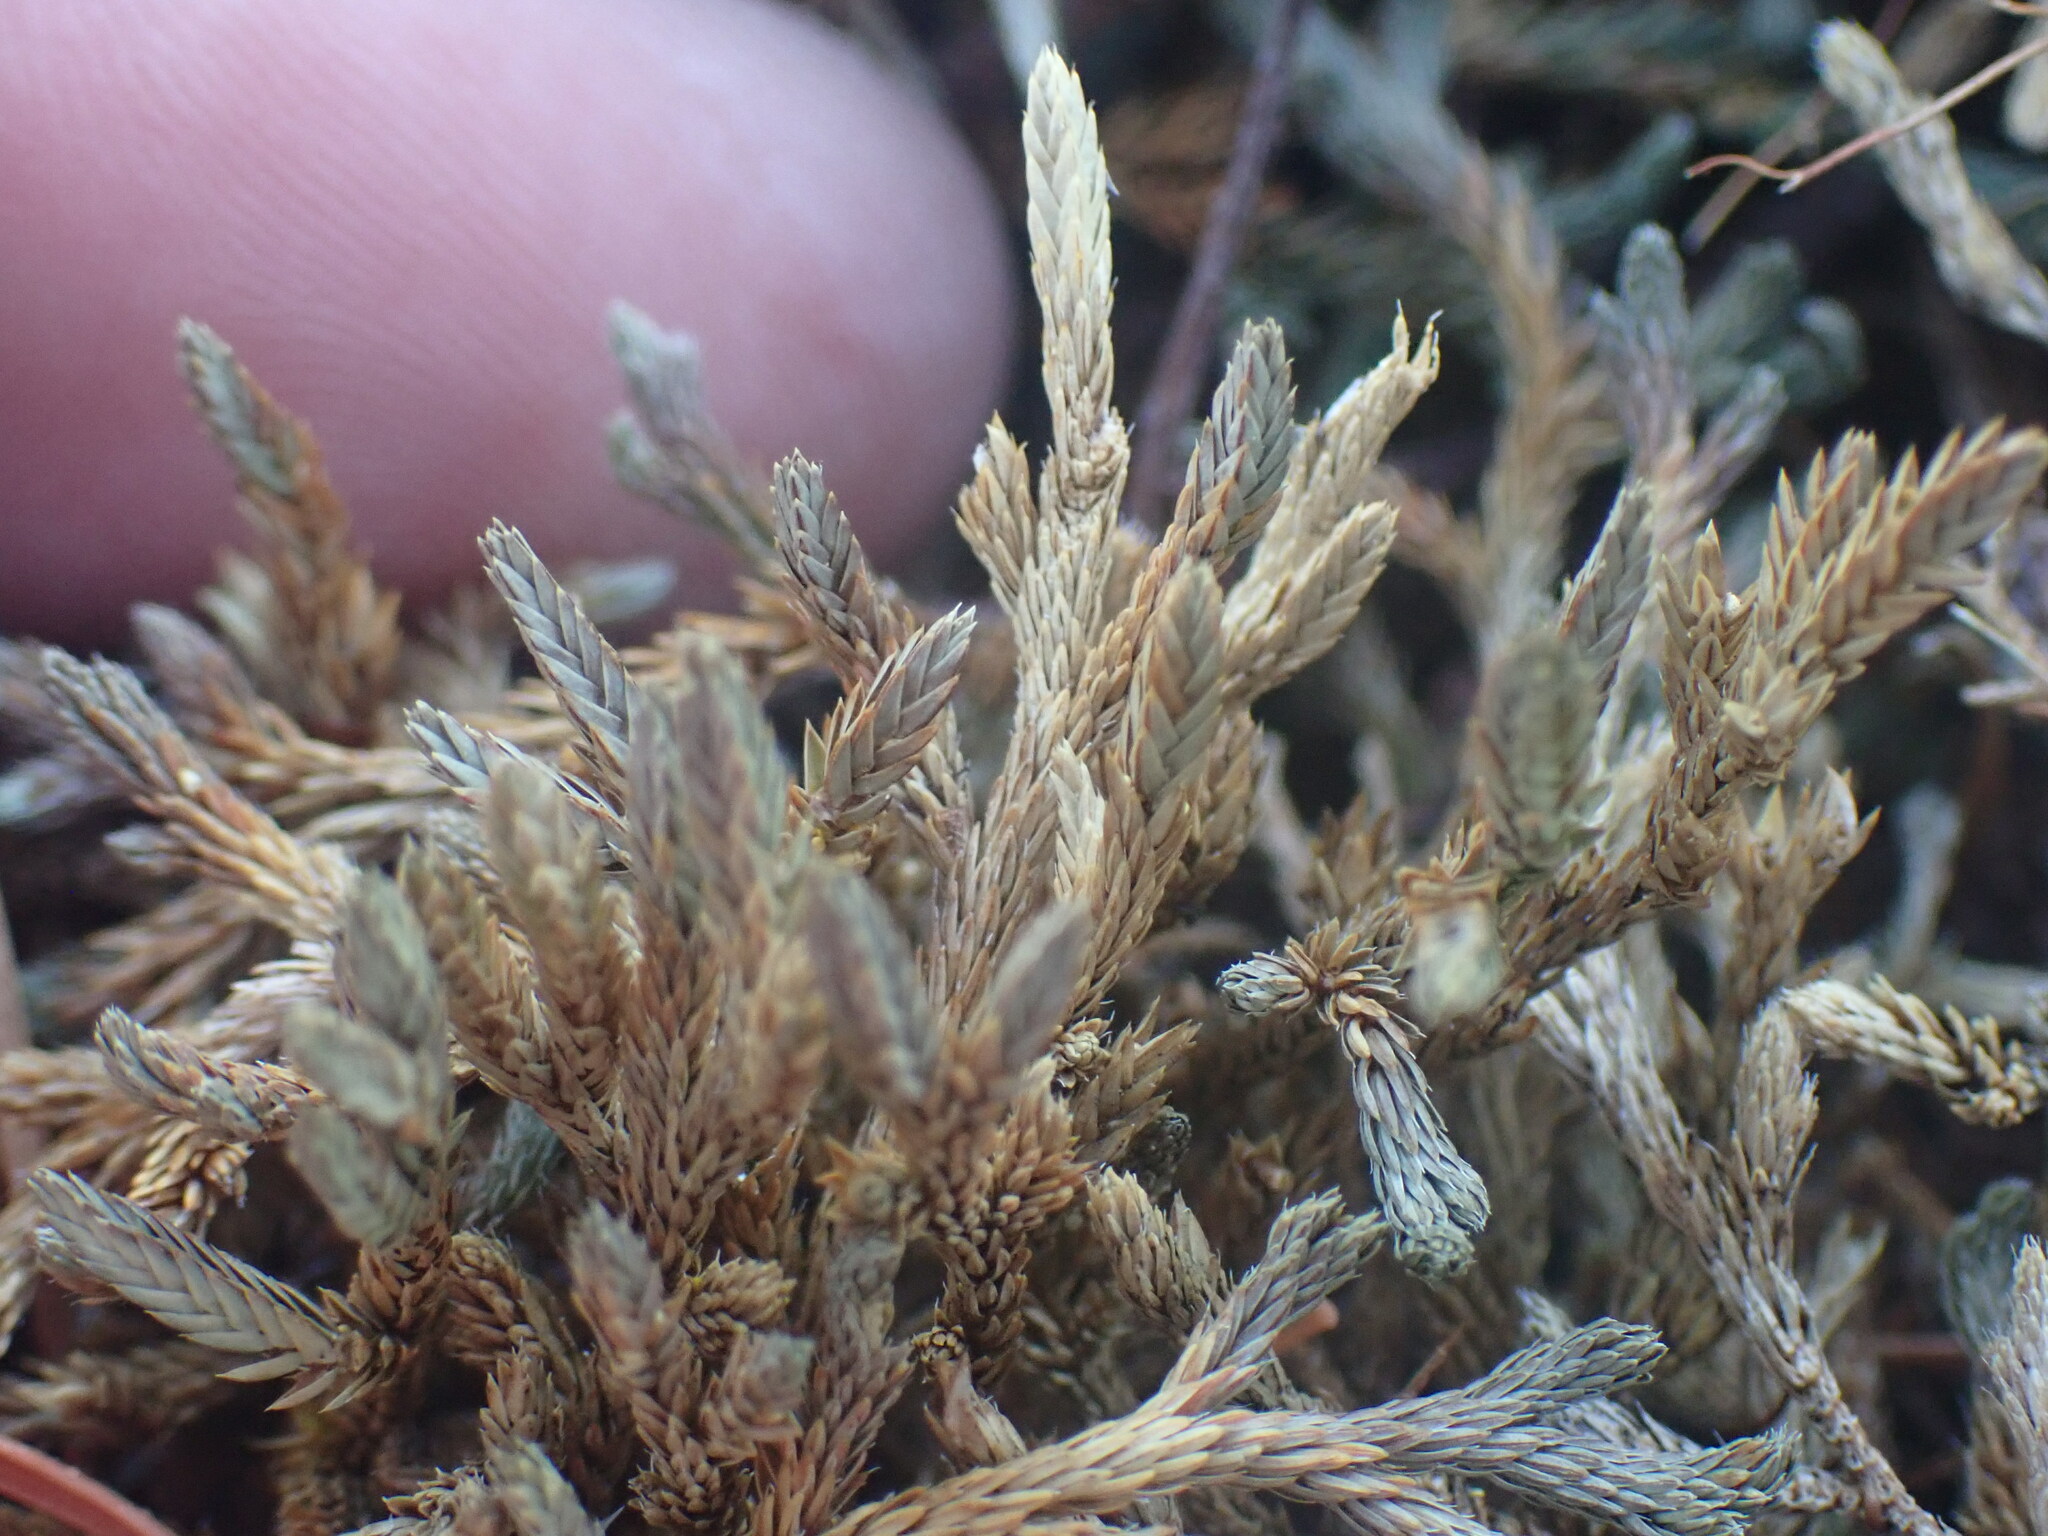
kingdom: Plantae
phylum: Tracheophyta
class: Lycopodiopsida
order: Selaginellales
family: Selaginellaceae
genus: Selaginella
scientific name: Selaginella wallacei
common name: Wallace's selaginella
